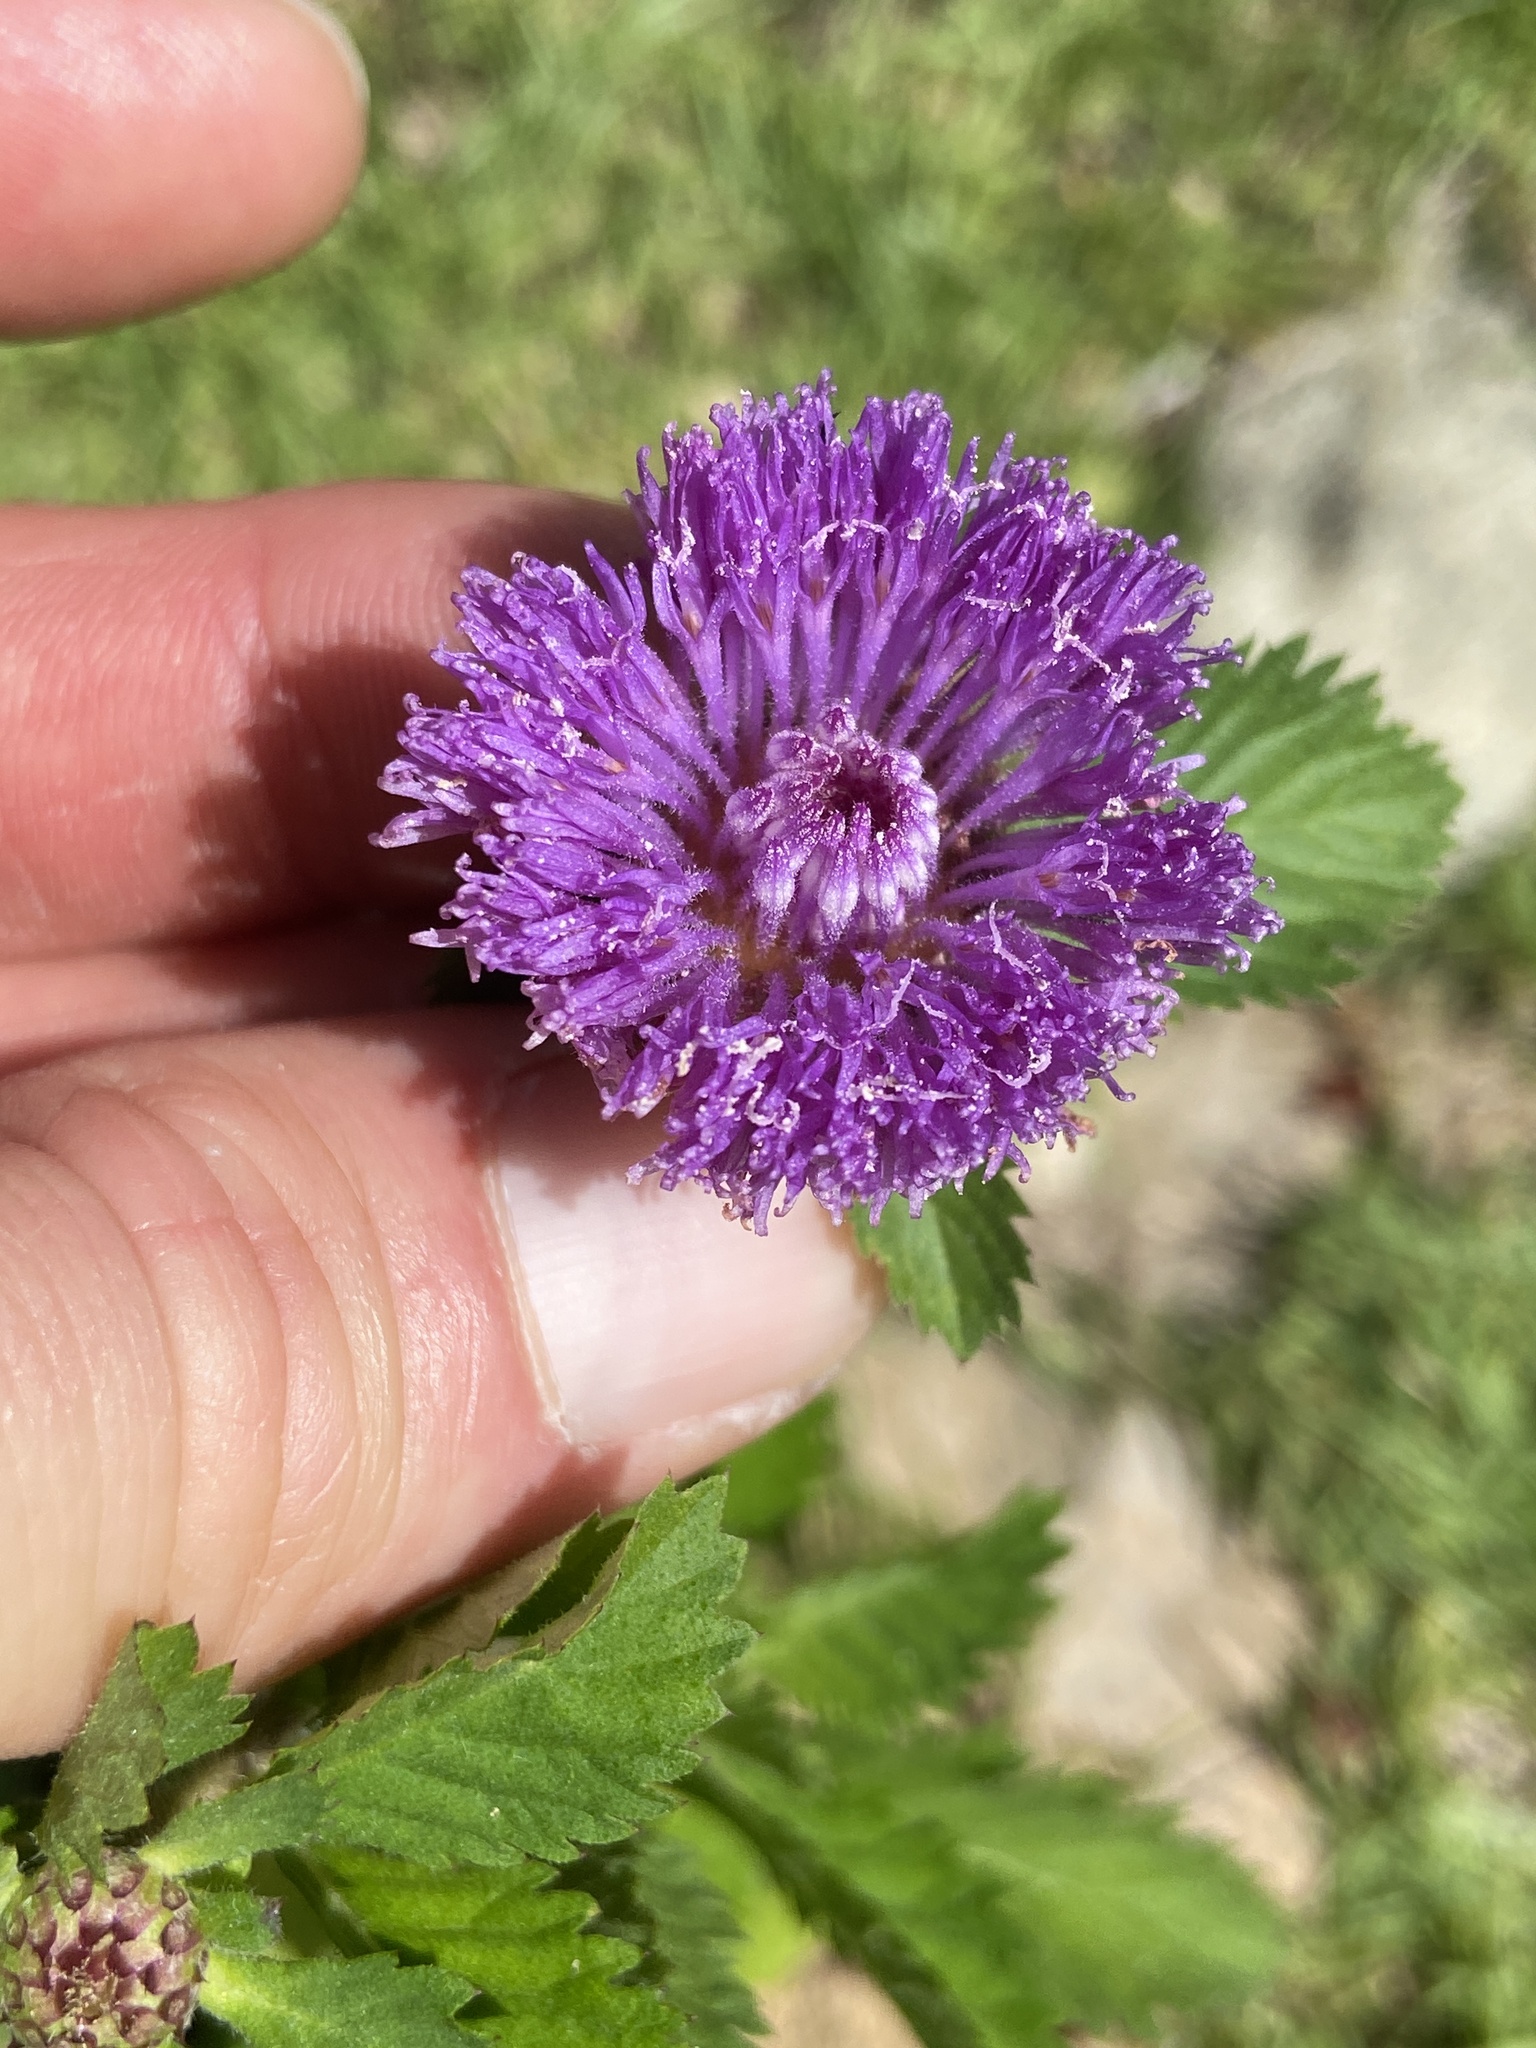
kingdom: Plantae
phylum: Tracheophyta
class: Magnoliopsida
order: Asterales
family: Asteraceae
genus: Centratherum
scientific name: Centratherum punctatum
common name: Larkdaisy
